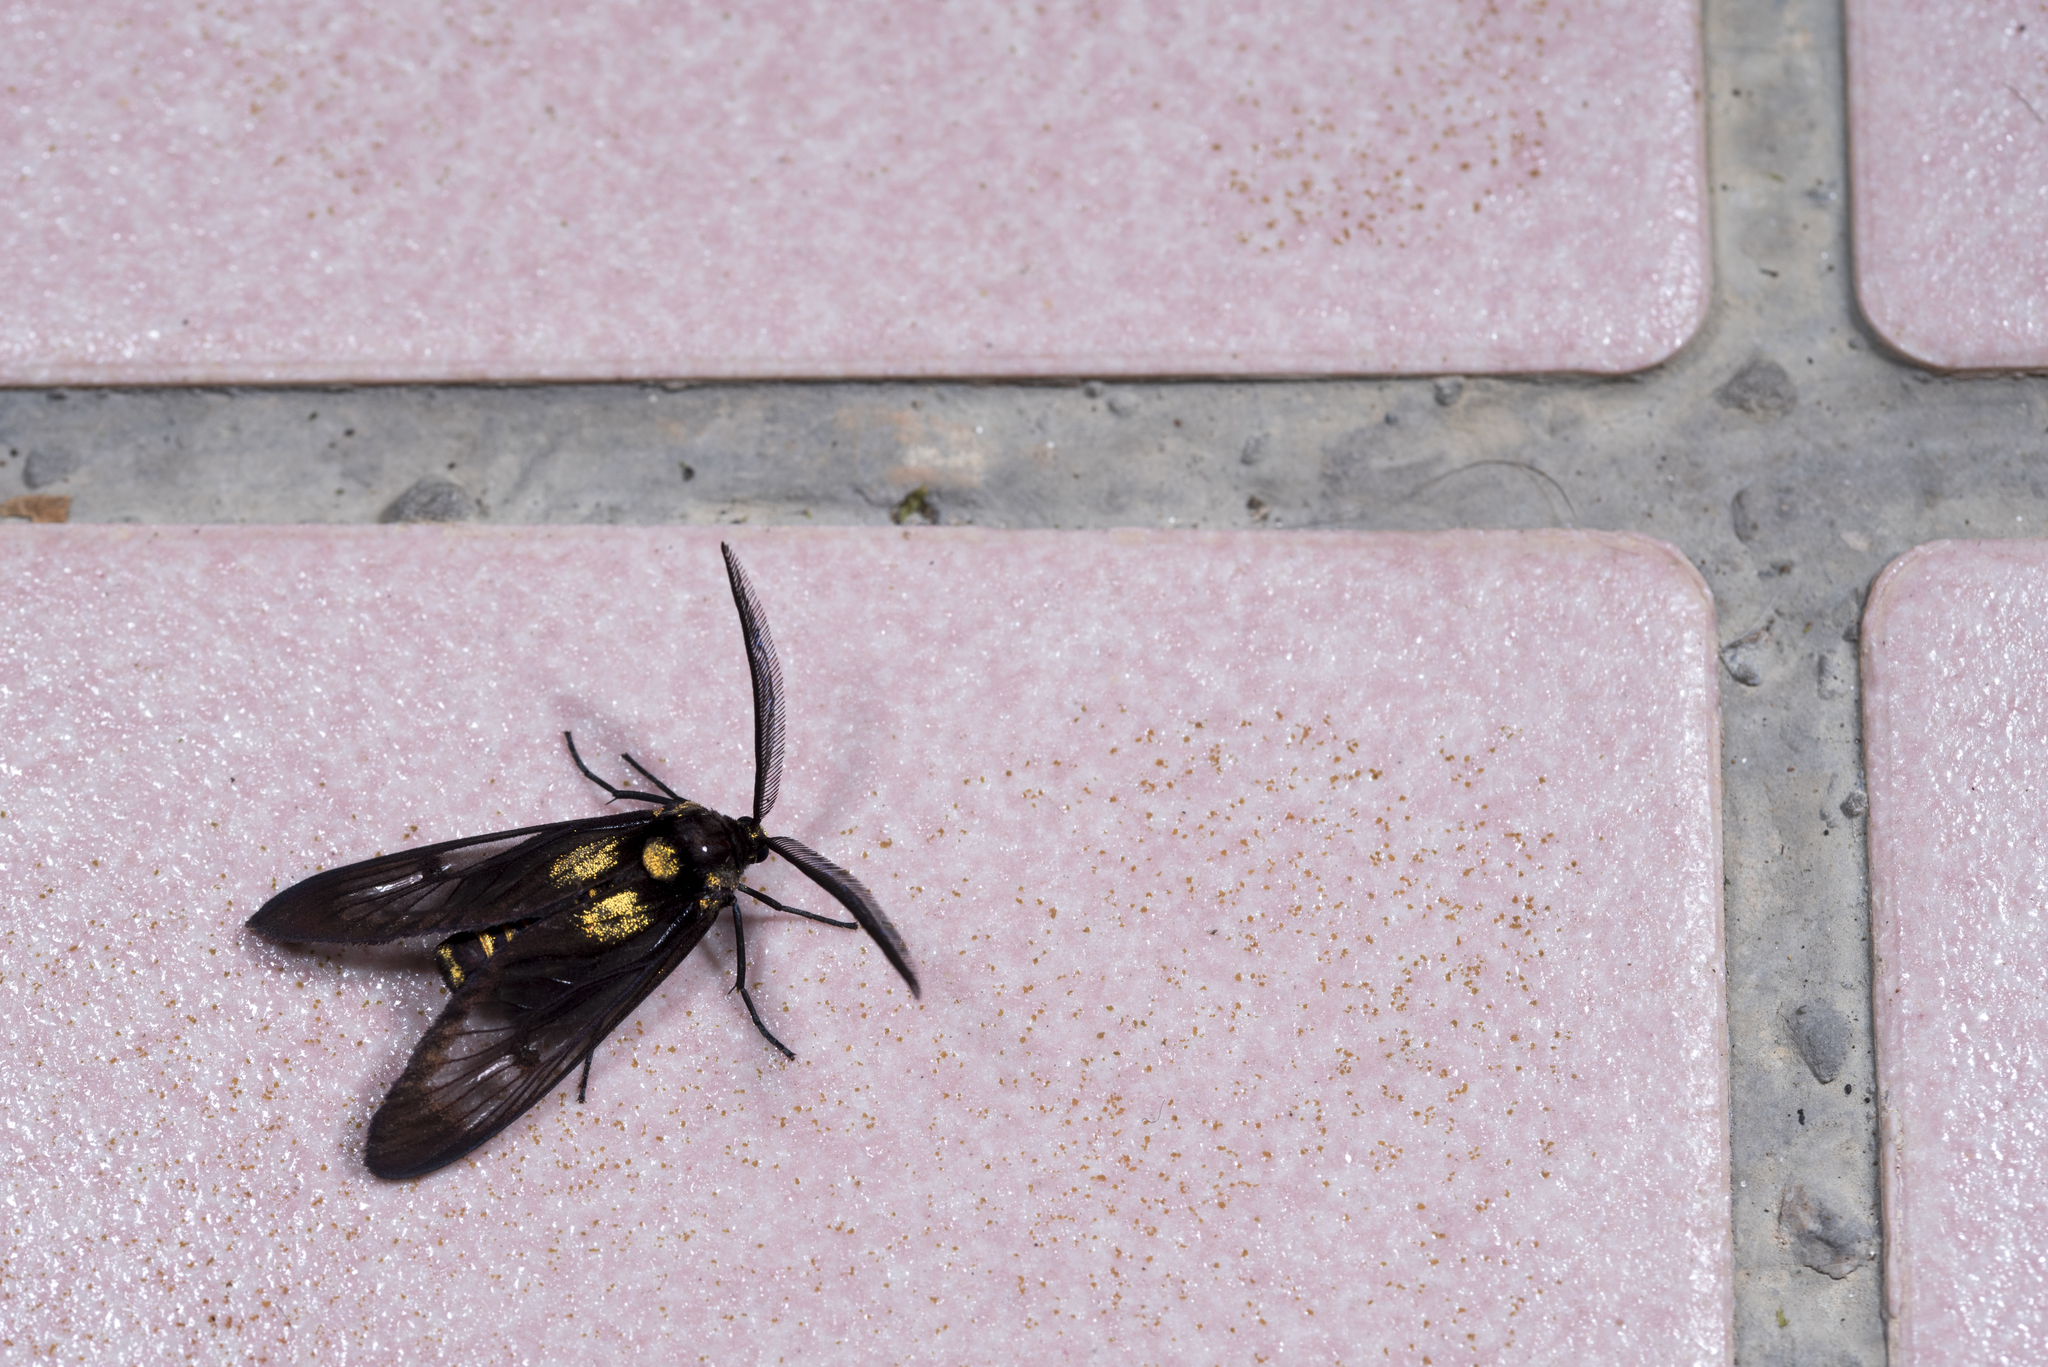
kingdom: Animalia
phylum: Arthropoda
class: Insecta
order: Lepidoptera
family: Zygaenidae
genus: Illiberis
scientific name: Illiberis
